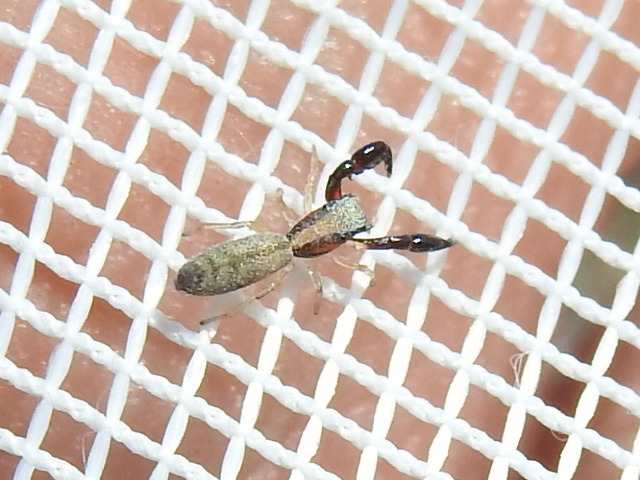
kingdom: Animalia
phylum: Arthropoda
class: Arachnida
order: Araneae
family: Salticidae
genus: Cheliferoides
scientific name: Cheliferoides longimanus
